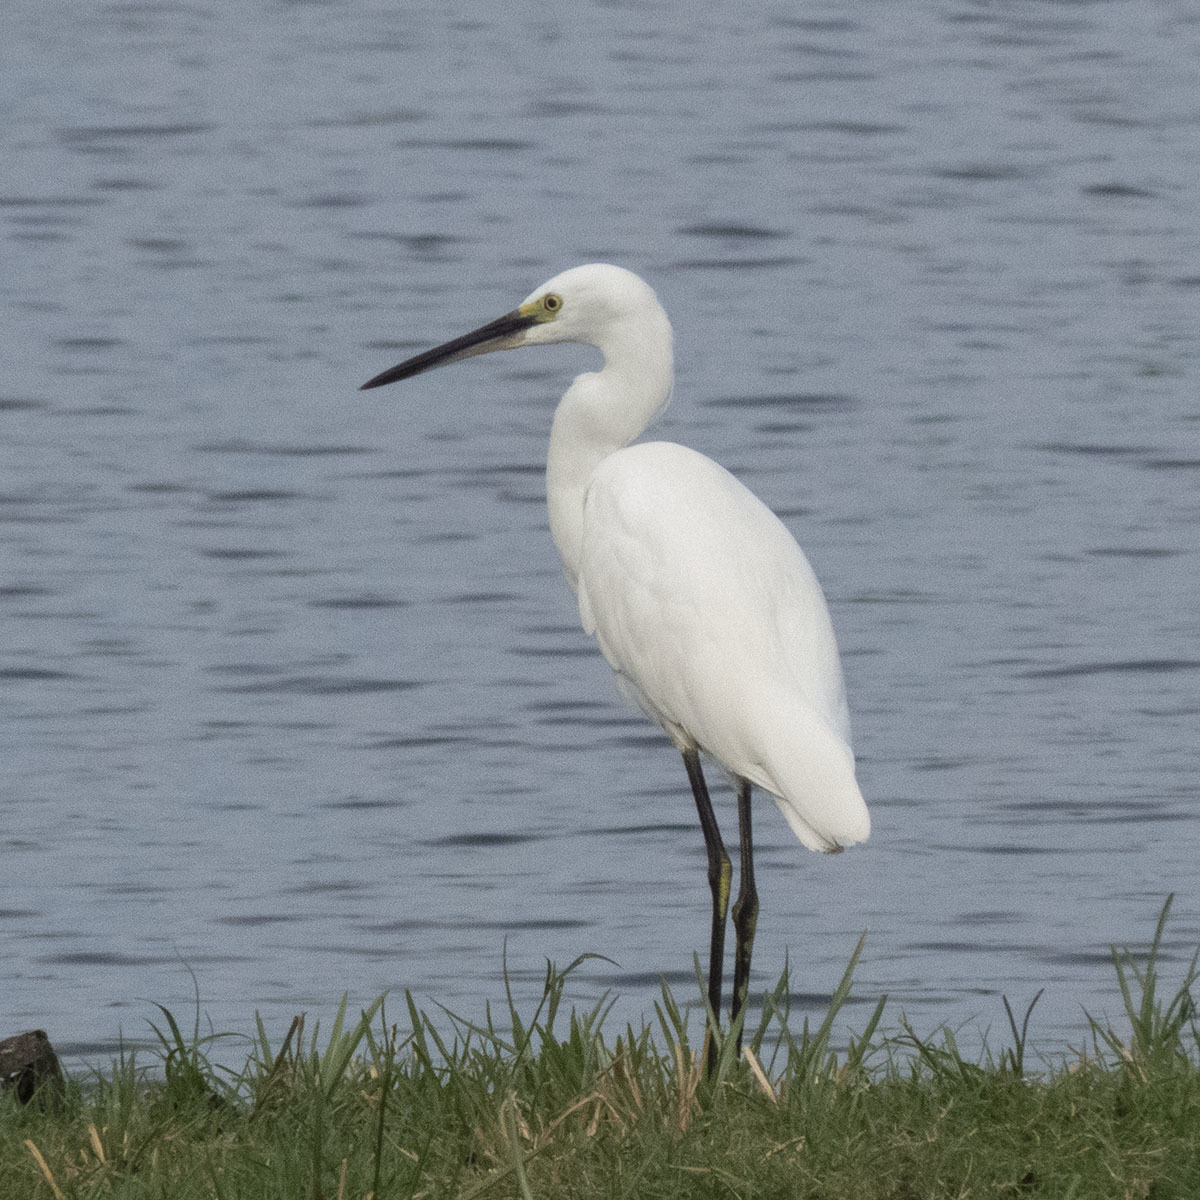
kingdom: Animalia
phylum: Chordata
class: Aves
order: Pelecaniformes
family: Ardeidae
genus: Egretta
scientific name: Egretta garzetta
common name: Little egret
